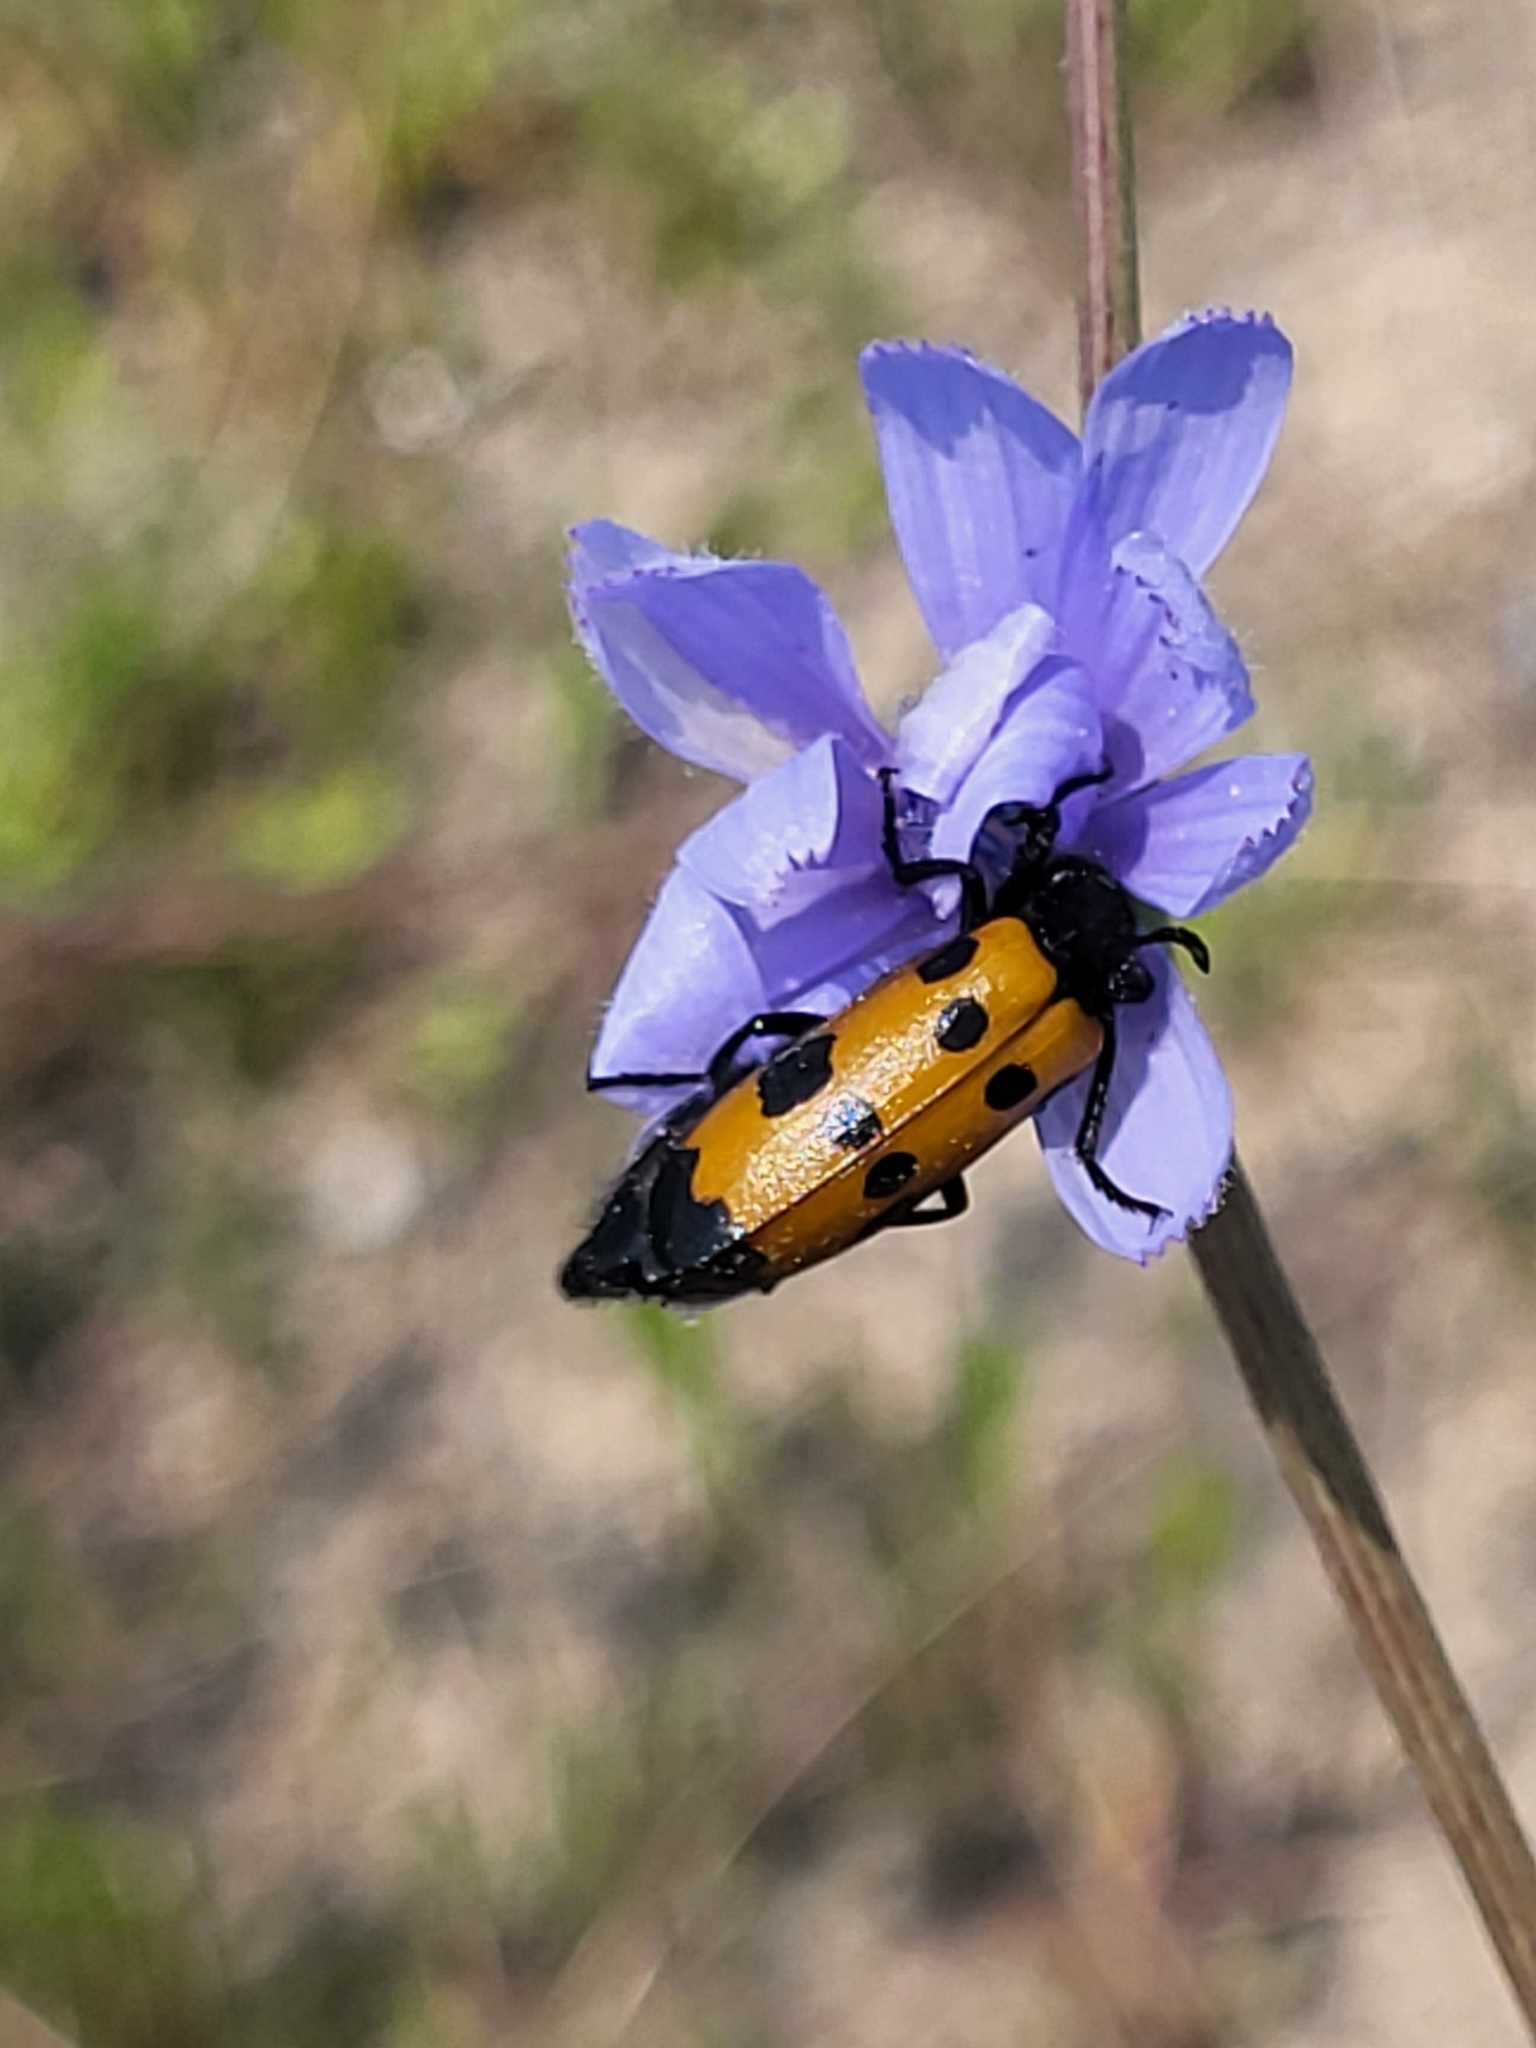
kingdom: Animalia
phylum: Arthropoda
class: Insecta
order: Coleoptera
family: Meloidae
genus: Mylabris
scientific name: Mylabris quadripunctata
